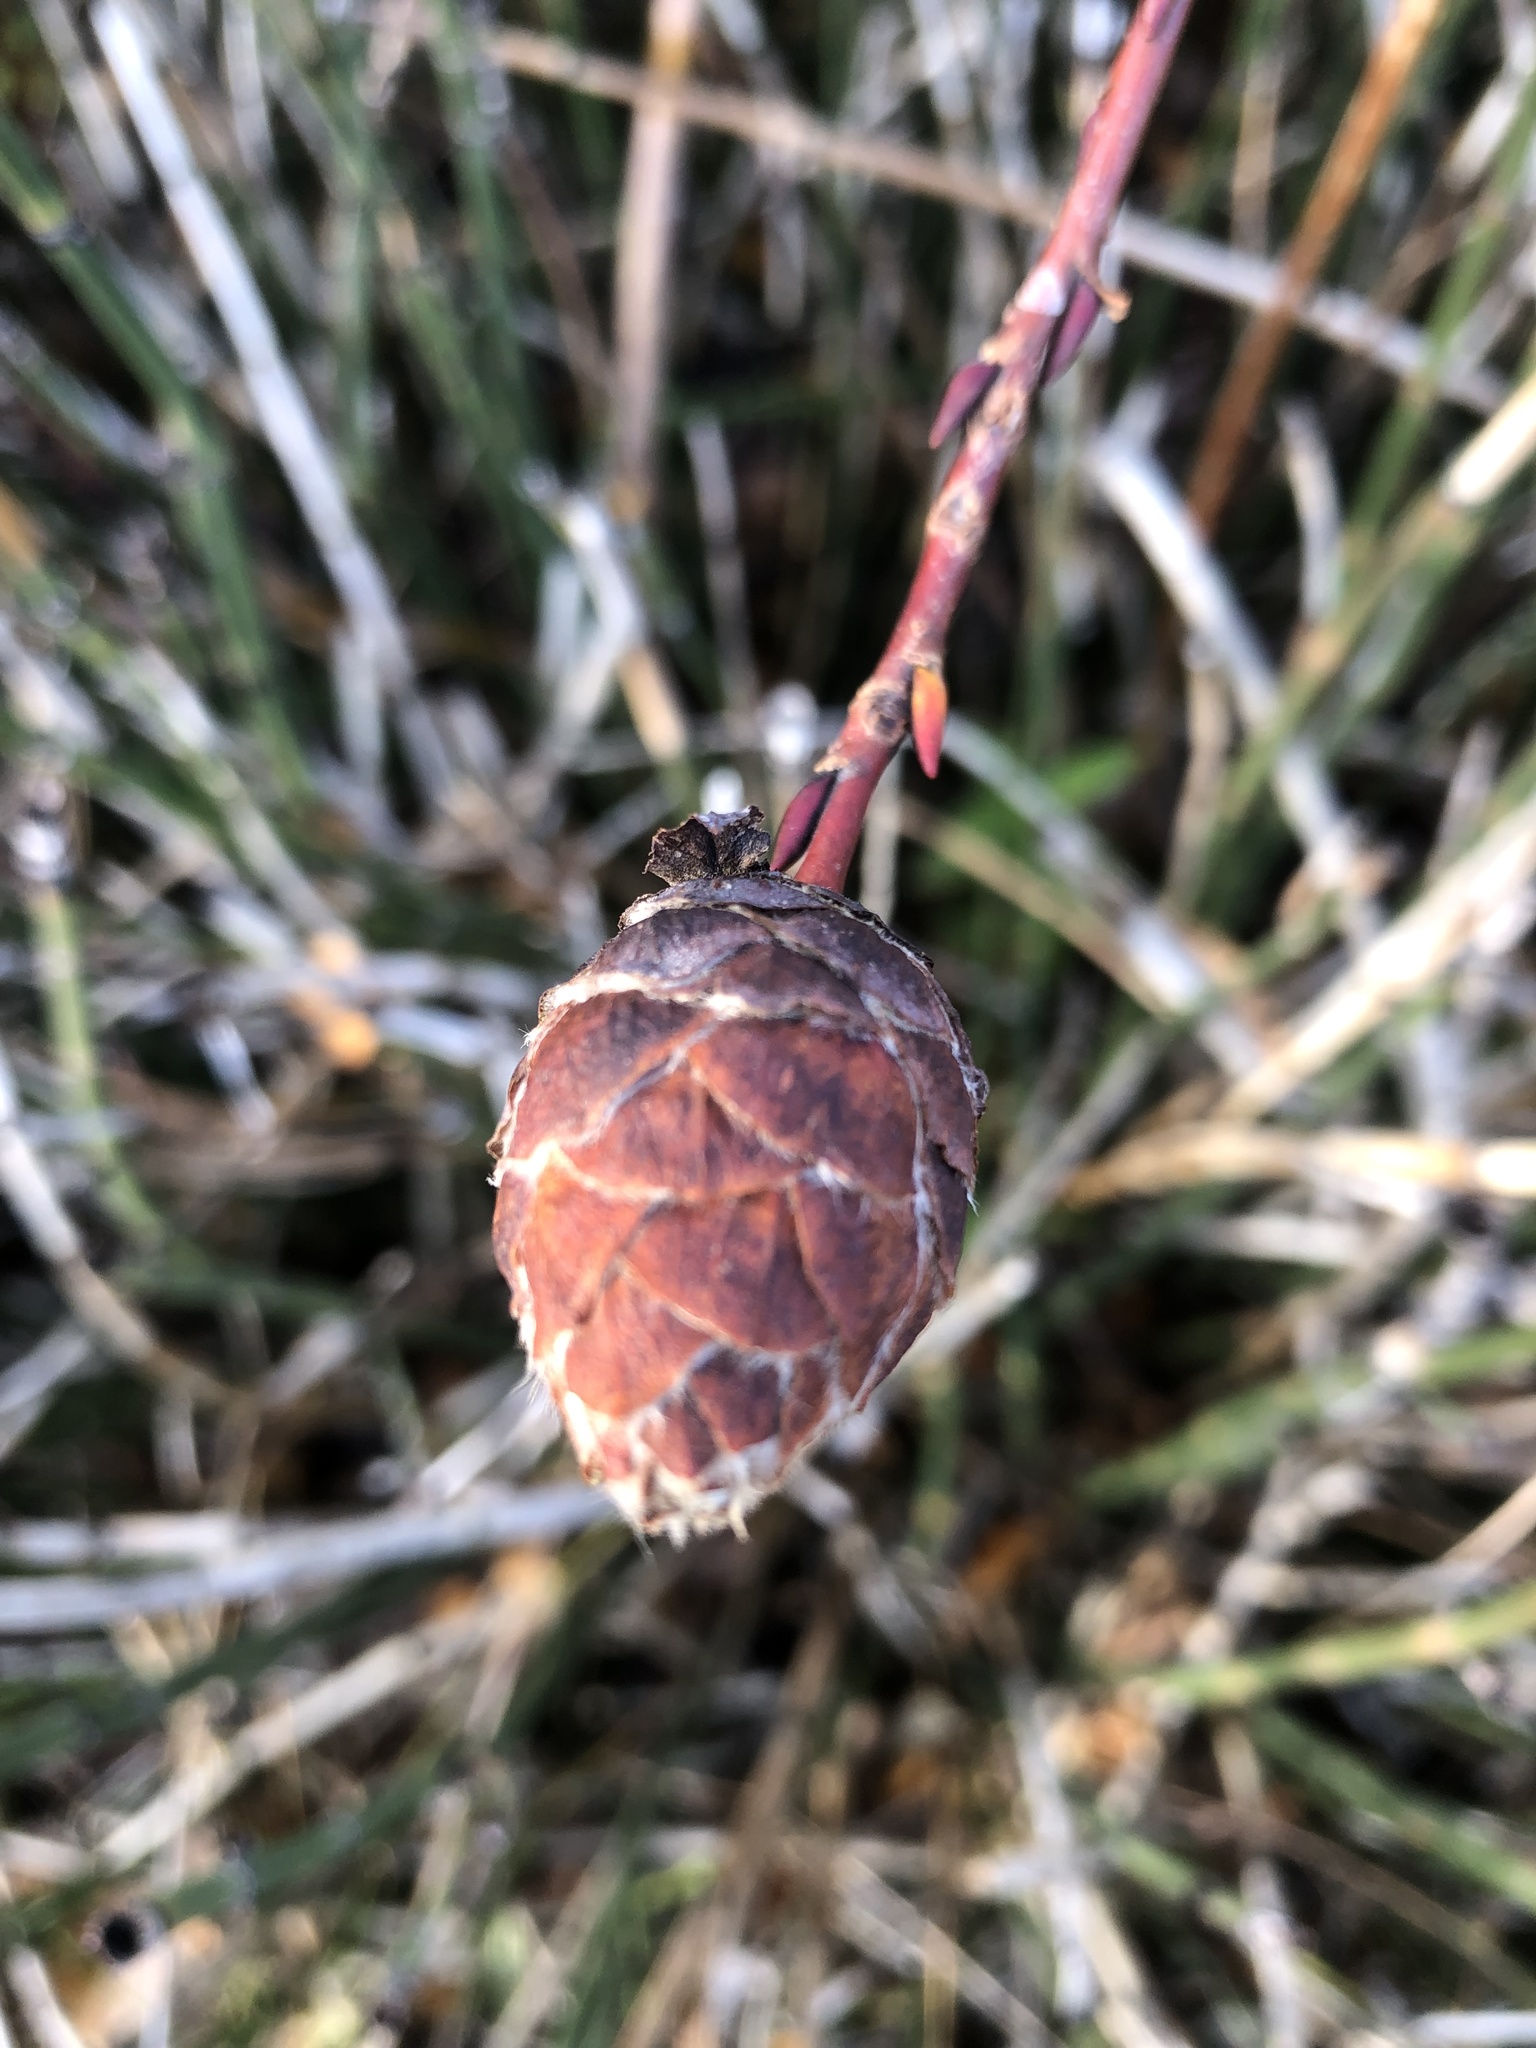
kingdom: Animalia
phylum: Arthropoda
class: Insecta
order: Diptera
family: Cecidomyiidae
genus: Rabdophaga
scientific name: Rabdophaga strobiloides
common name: Willow pinecone gall midge
